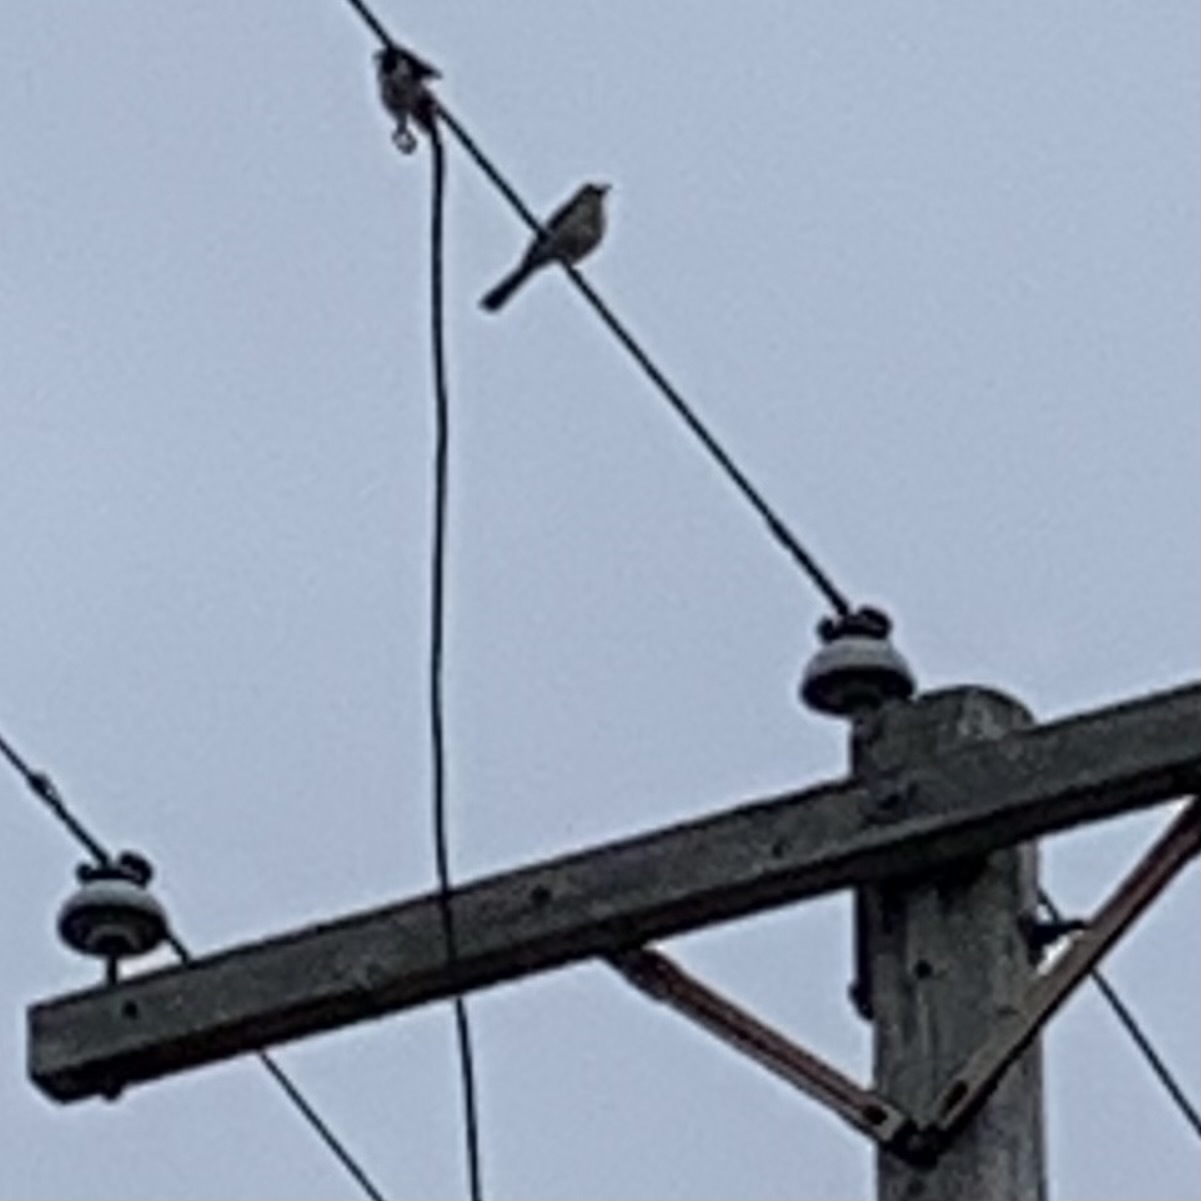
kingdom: Animalia
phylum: Chordata
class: Aves
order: Passeriformes
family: Mimidae
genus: Mimus
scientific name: Mimus polyglottos
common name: Northern mockingbird
